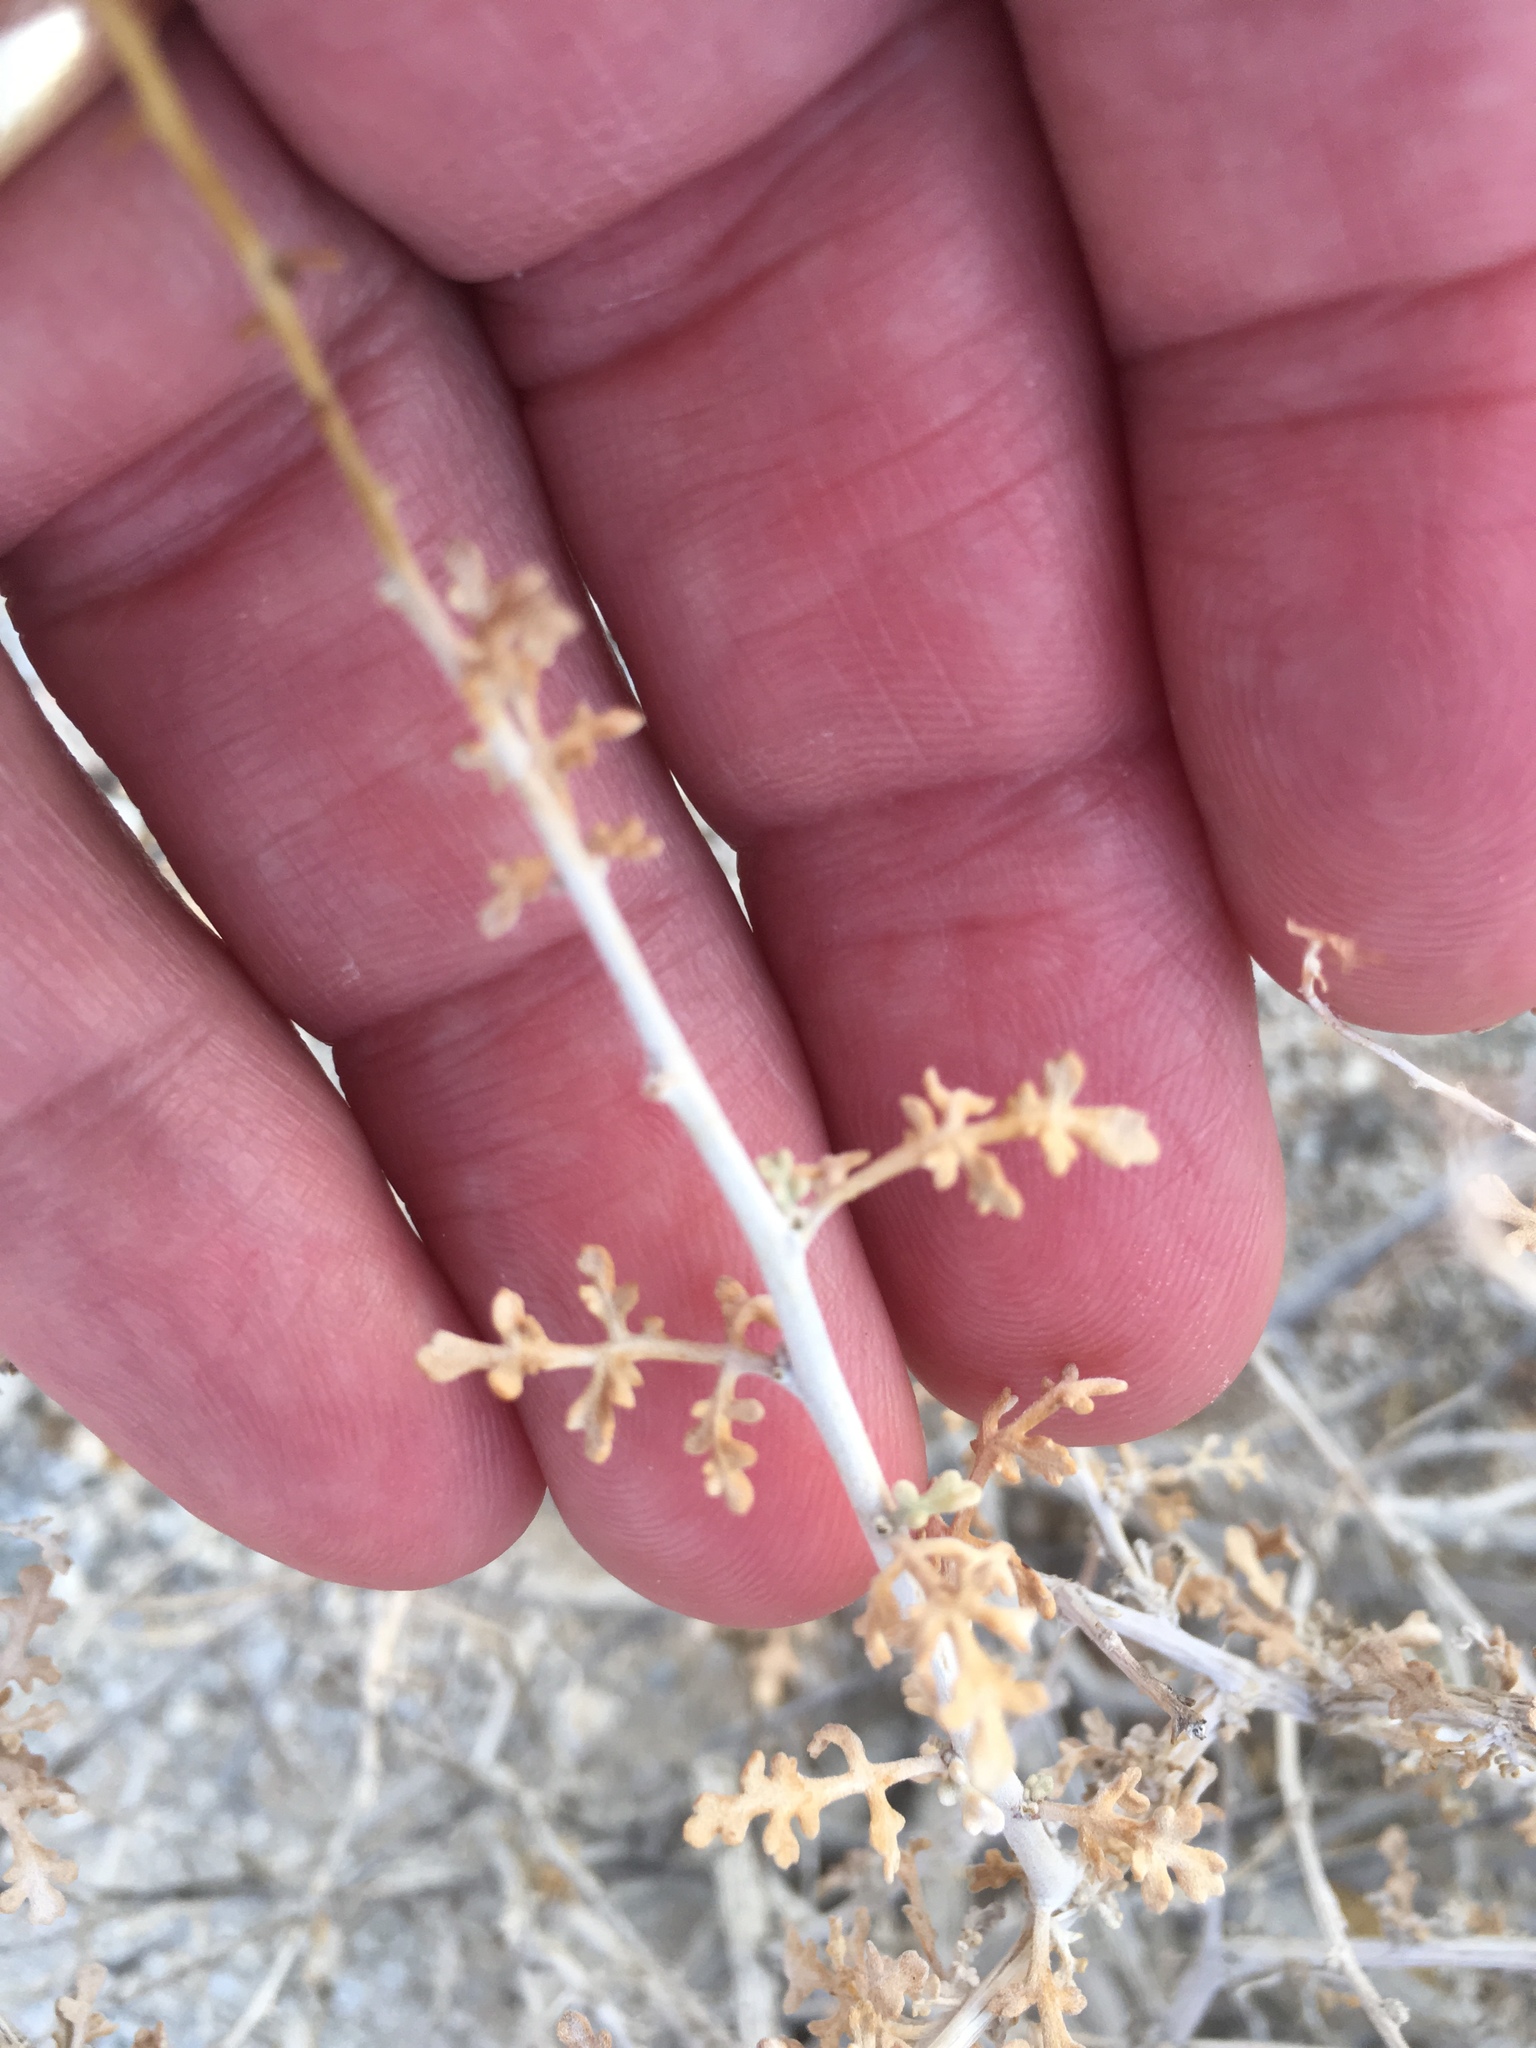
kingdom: Plantae
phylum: Tracheophyta
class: Magnoliopsida
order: Asterales
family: Asteraceae
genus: Ambrosia
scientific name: Ambrosia dumosa
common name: Bur-sage
